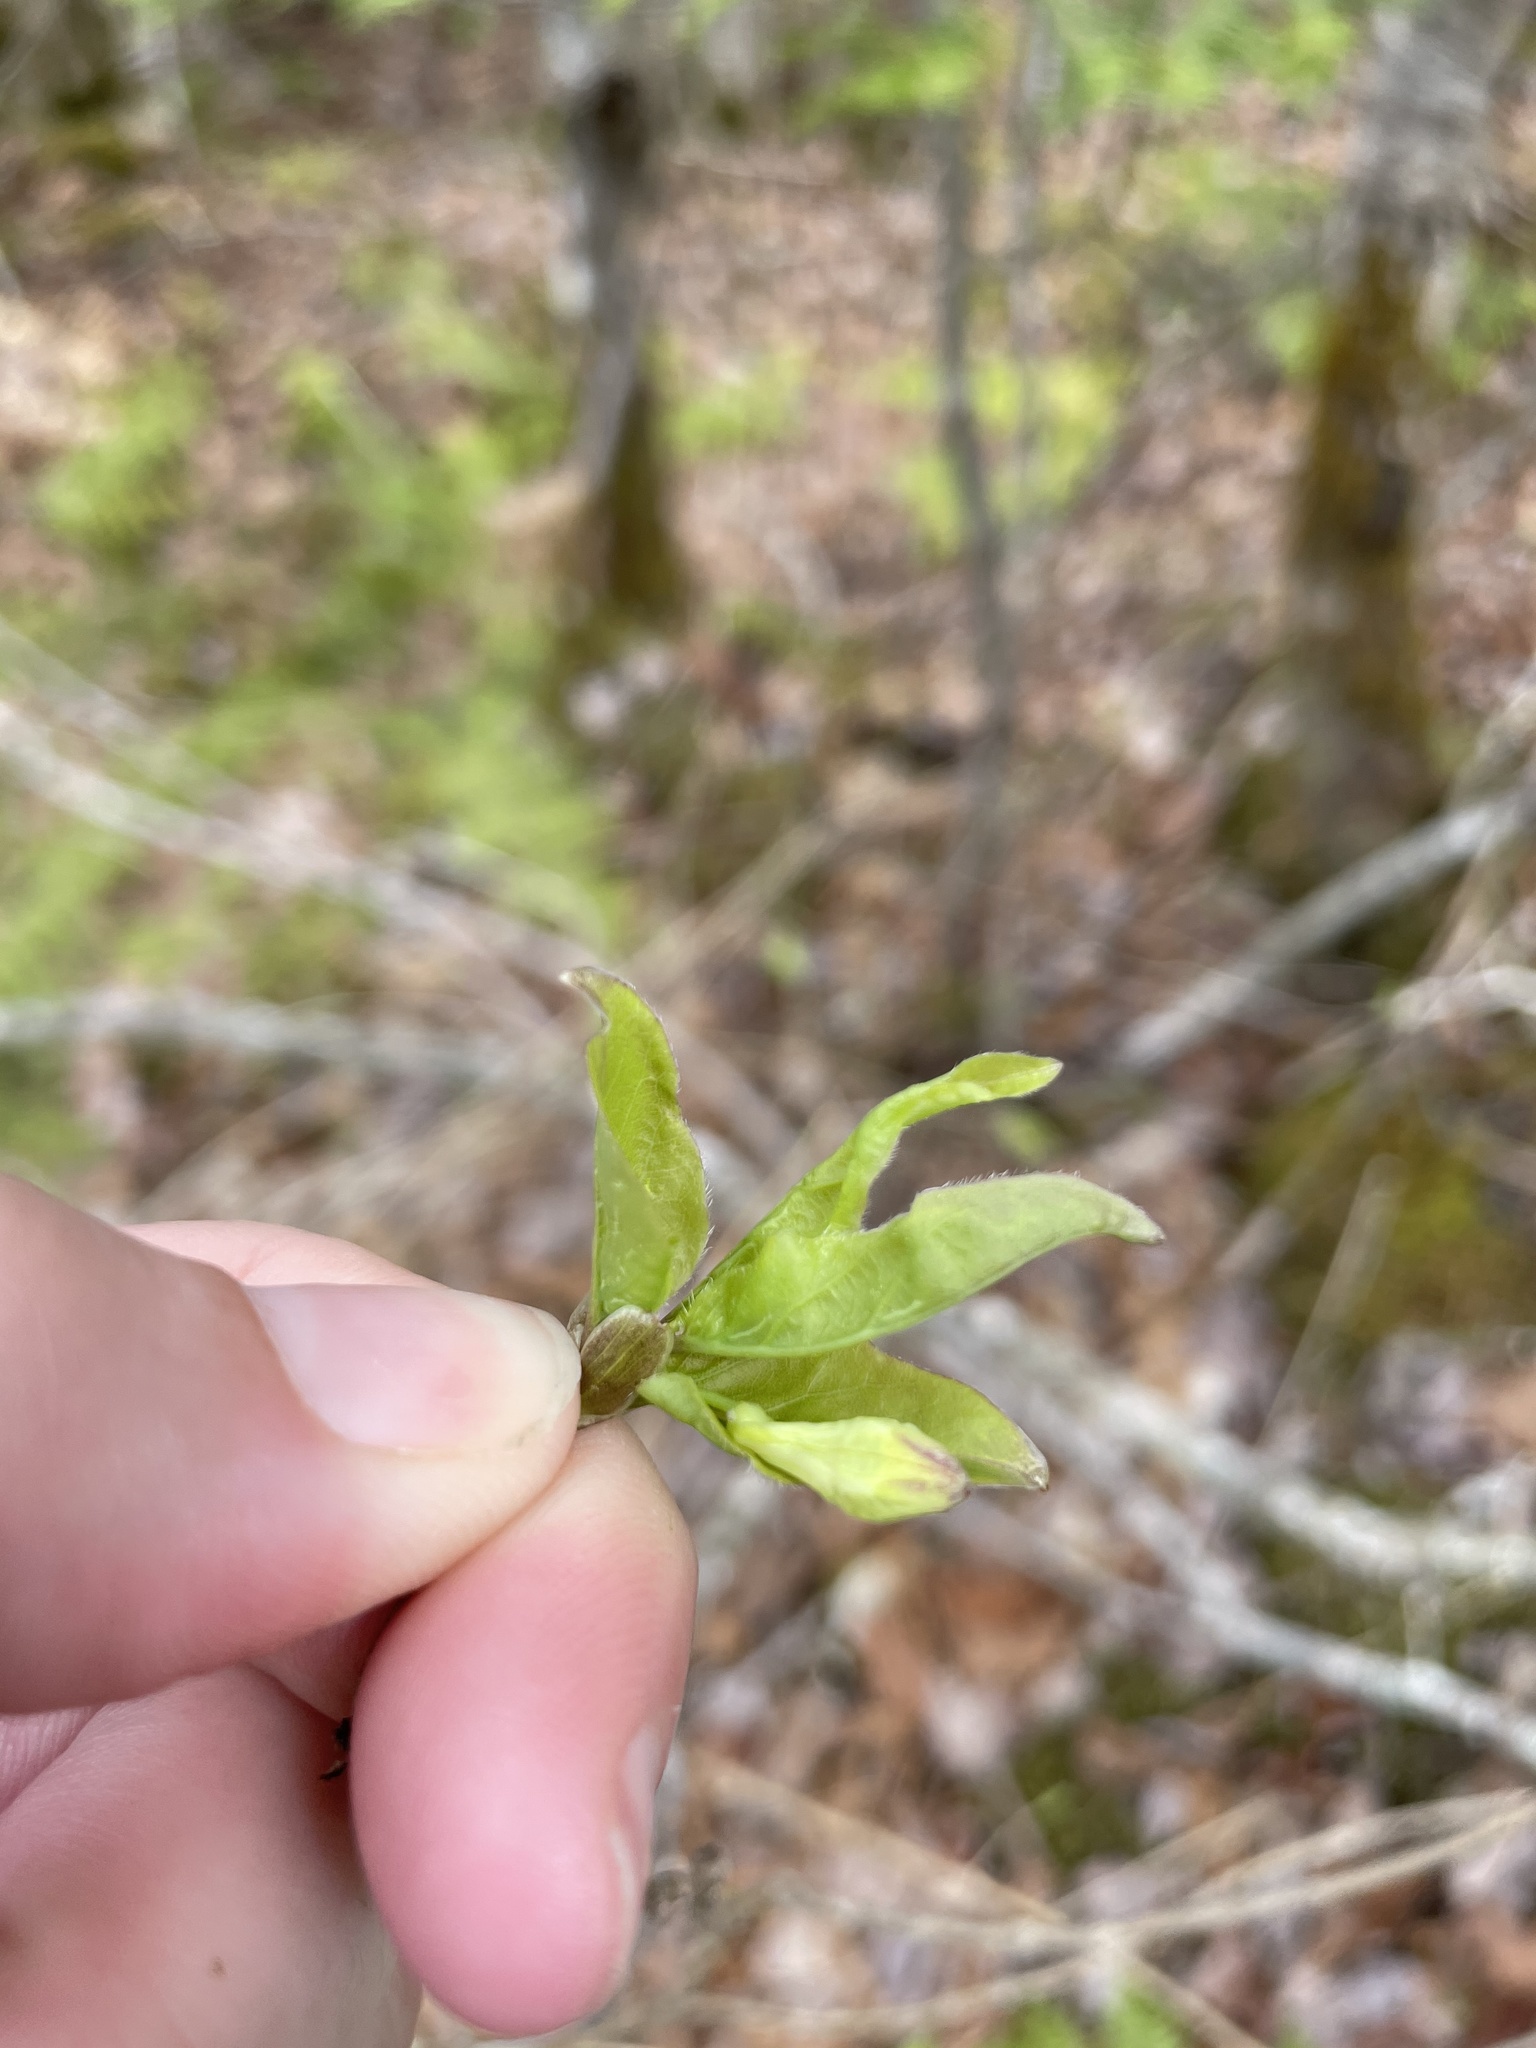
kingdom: Plantae
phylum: Tracheophyta
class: Magnoliopsida
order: Dipsacales
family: Caprifoliaceae
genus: Lonicera
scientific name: Lonicera canadensis
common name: American fly-honeysuckle
